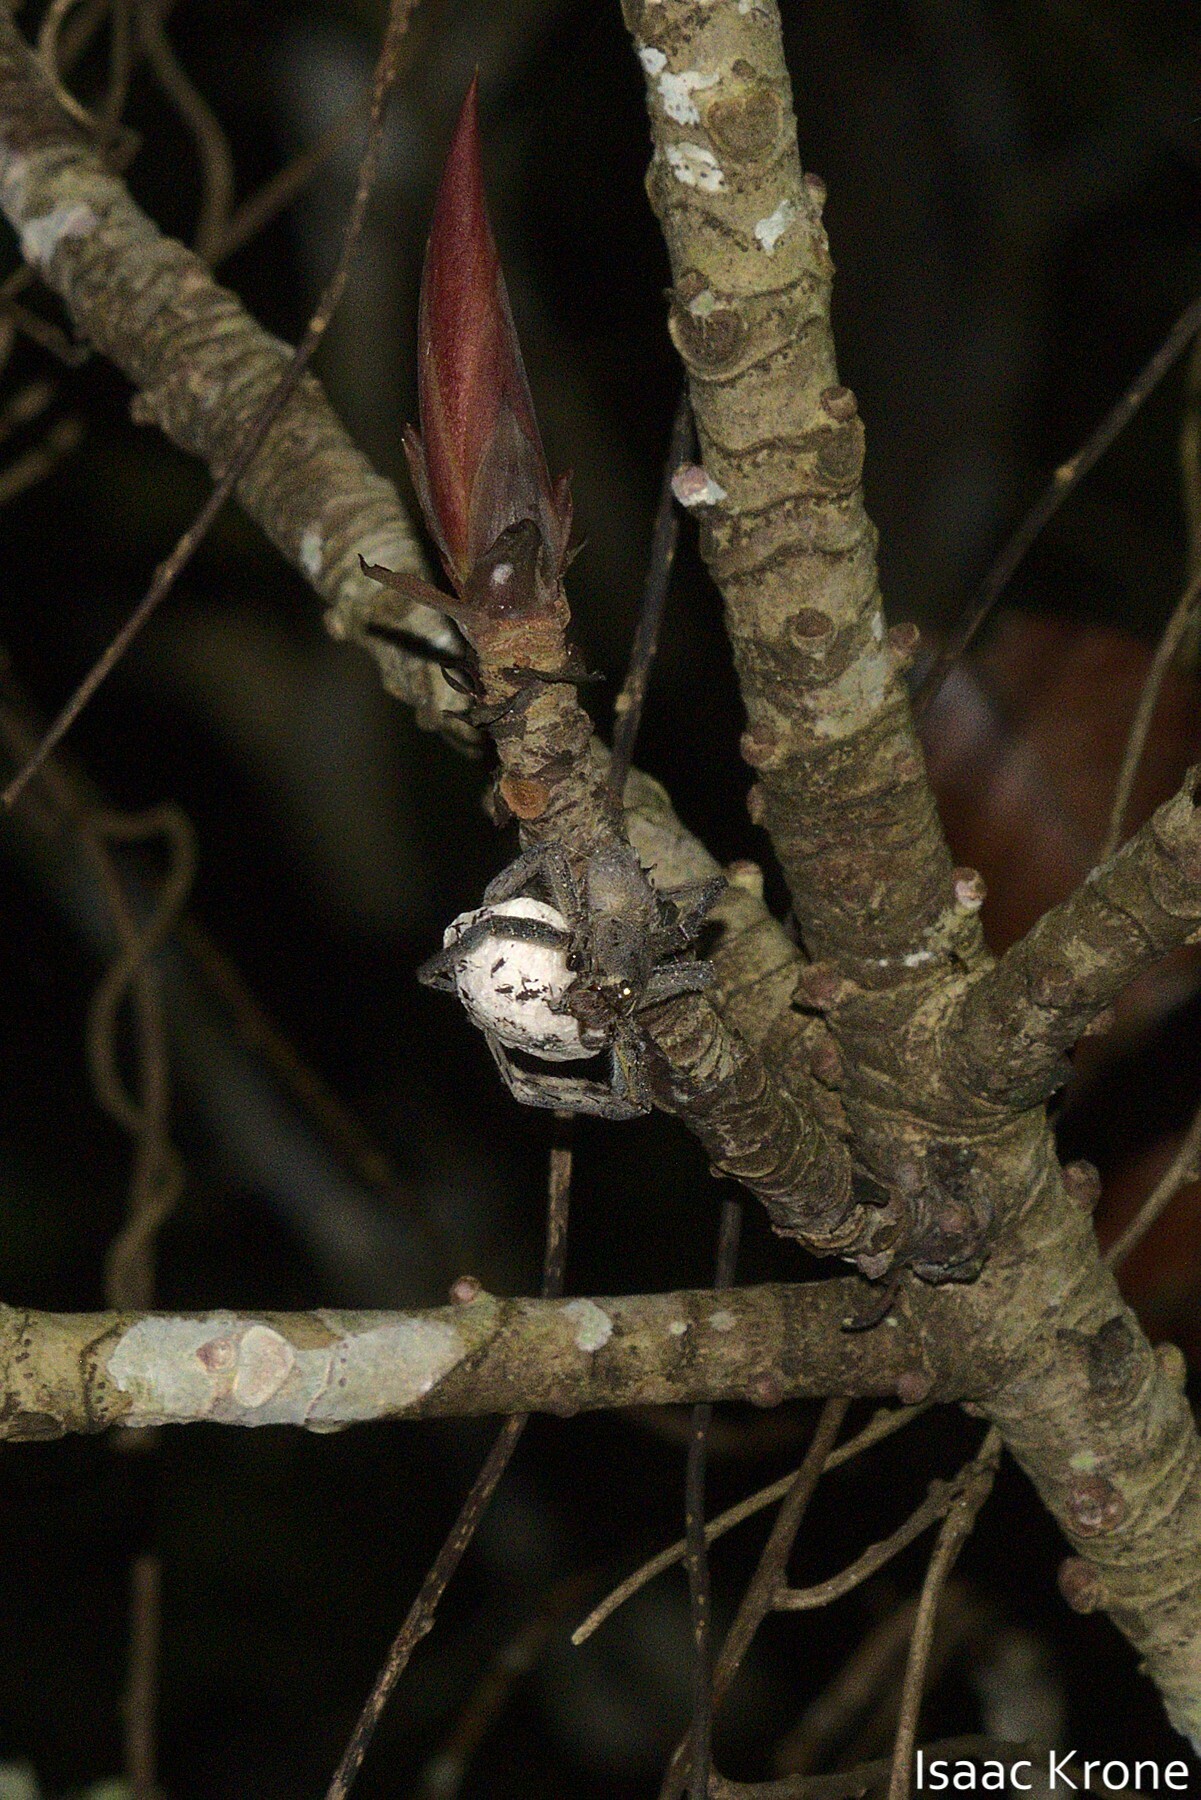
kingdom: Animalia
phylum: Arthropoda
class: Arachnida
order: Araneae
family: Ctenidae
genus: Phoneutria
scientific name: Phoneutria boliviensis
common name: Wandering spiders
